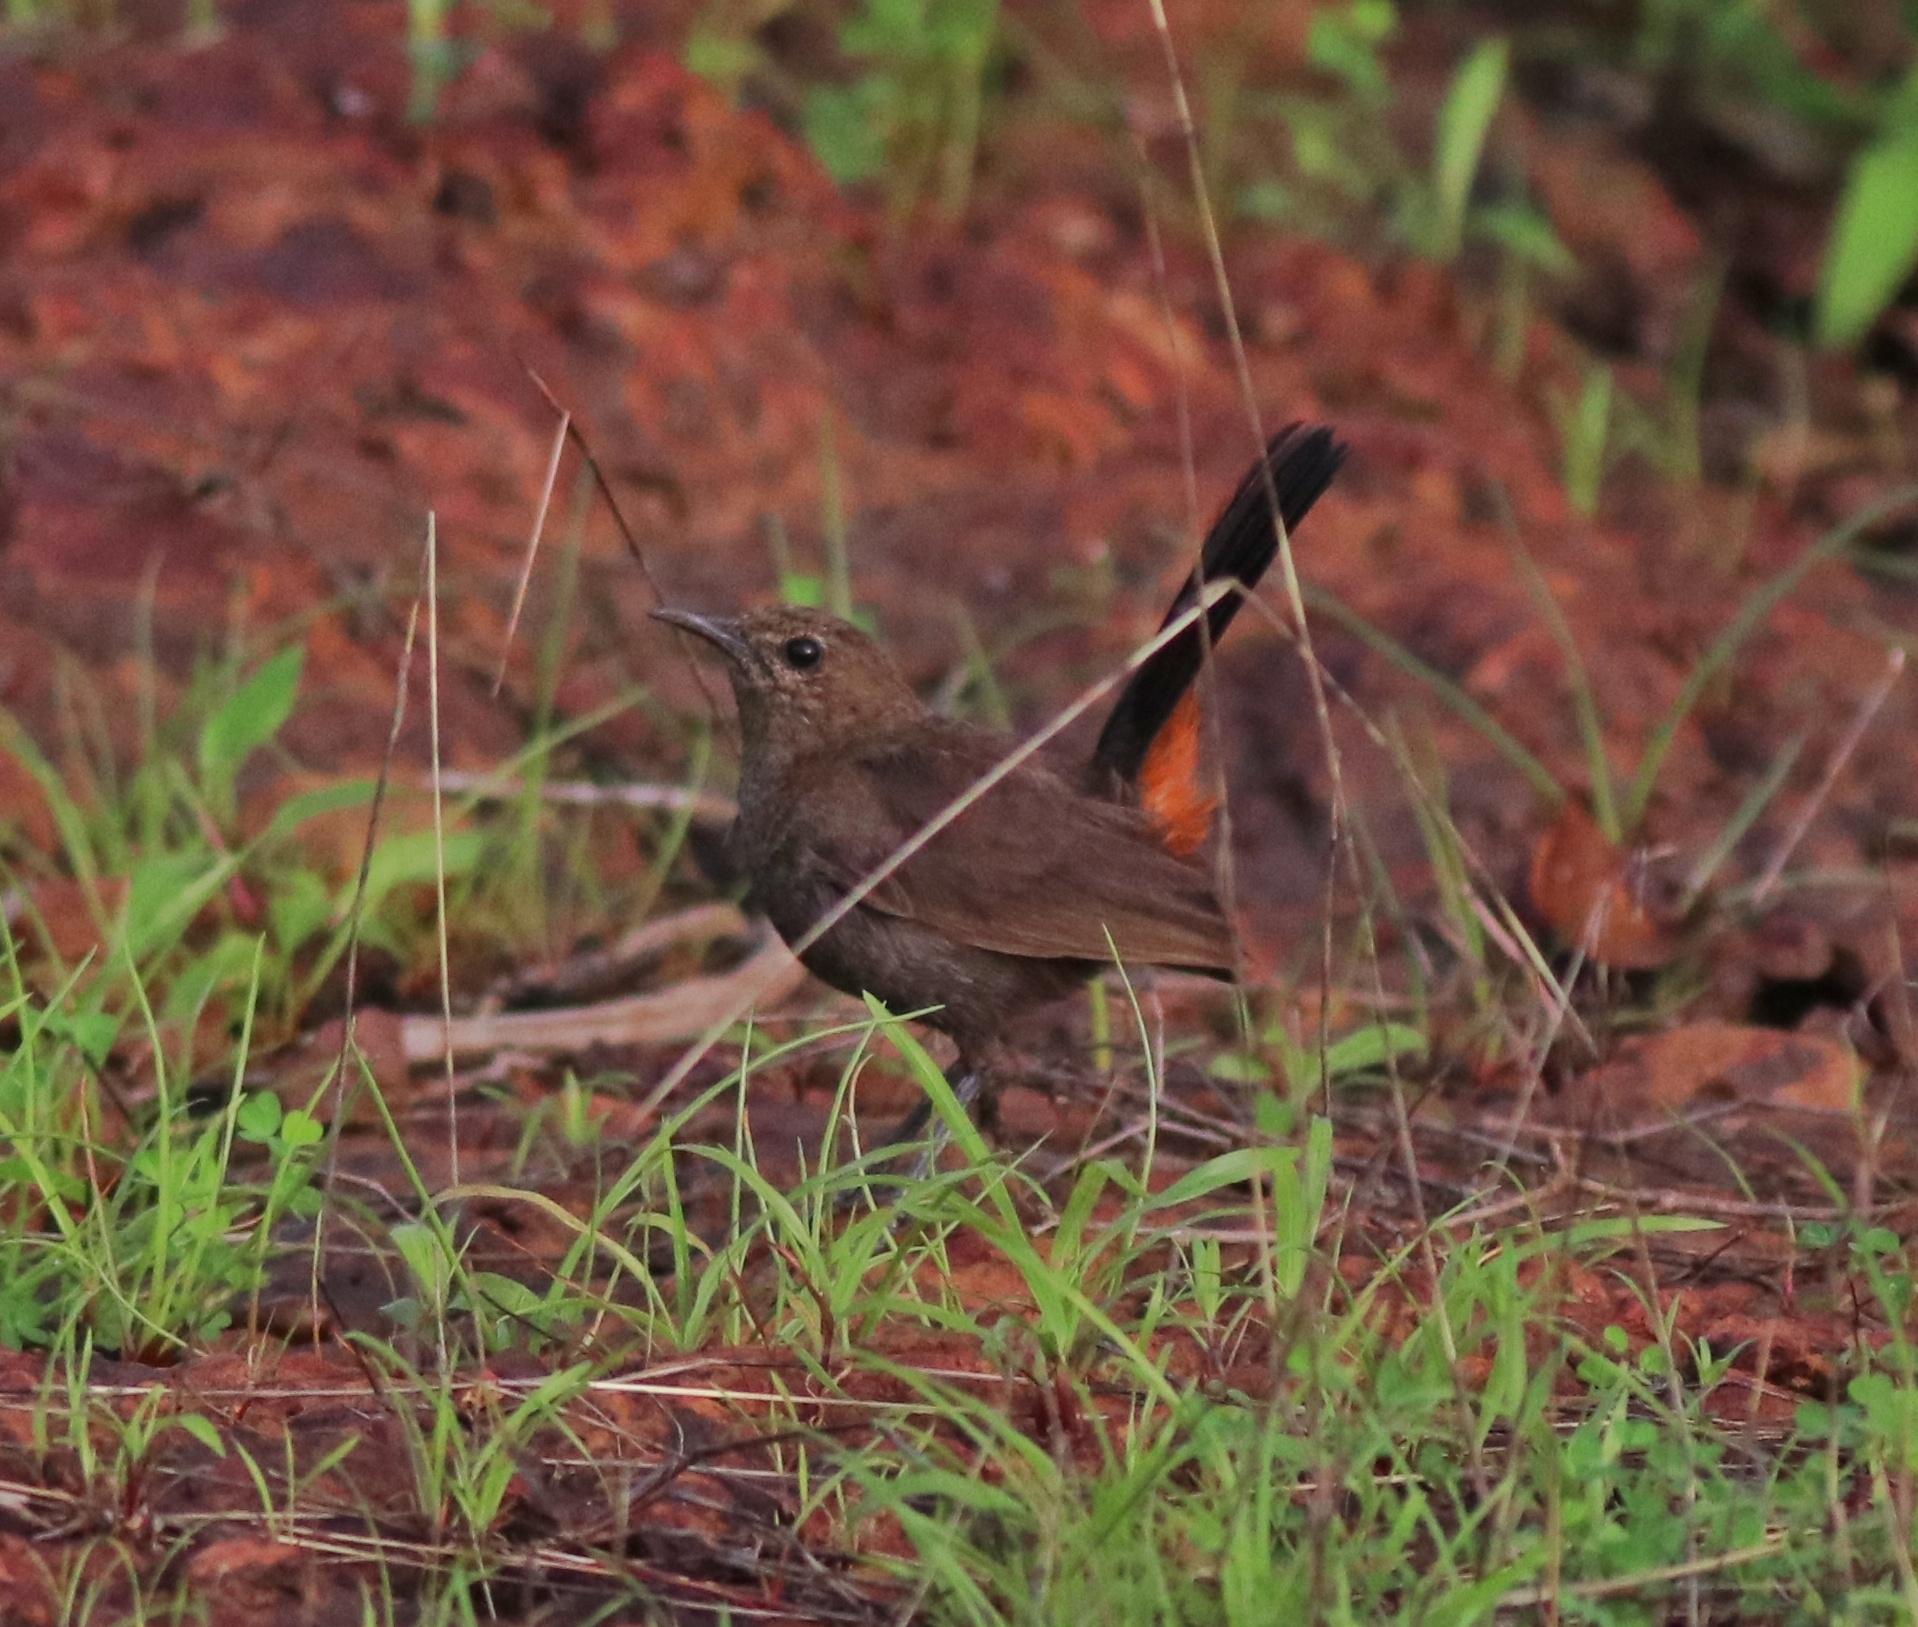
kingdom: Animalia
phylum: Chordata
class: Aves
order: Passeriformes
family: Muscicapidae
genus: Saxicoloides
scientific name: Saxicoloides fulicatus
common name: Indian robin
